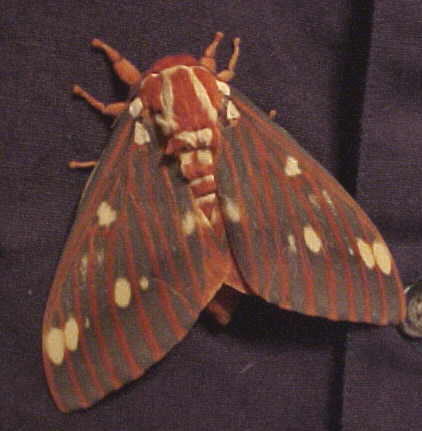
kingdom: Animalia
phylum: Arthropoda
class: Insecta
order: Lepidoptera
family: Saturniidae
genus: Citheronia
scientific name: Citheronia regalis
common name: Hickory horned devil
